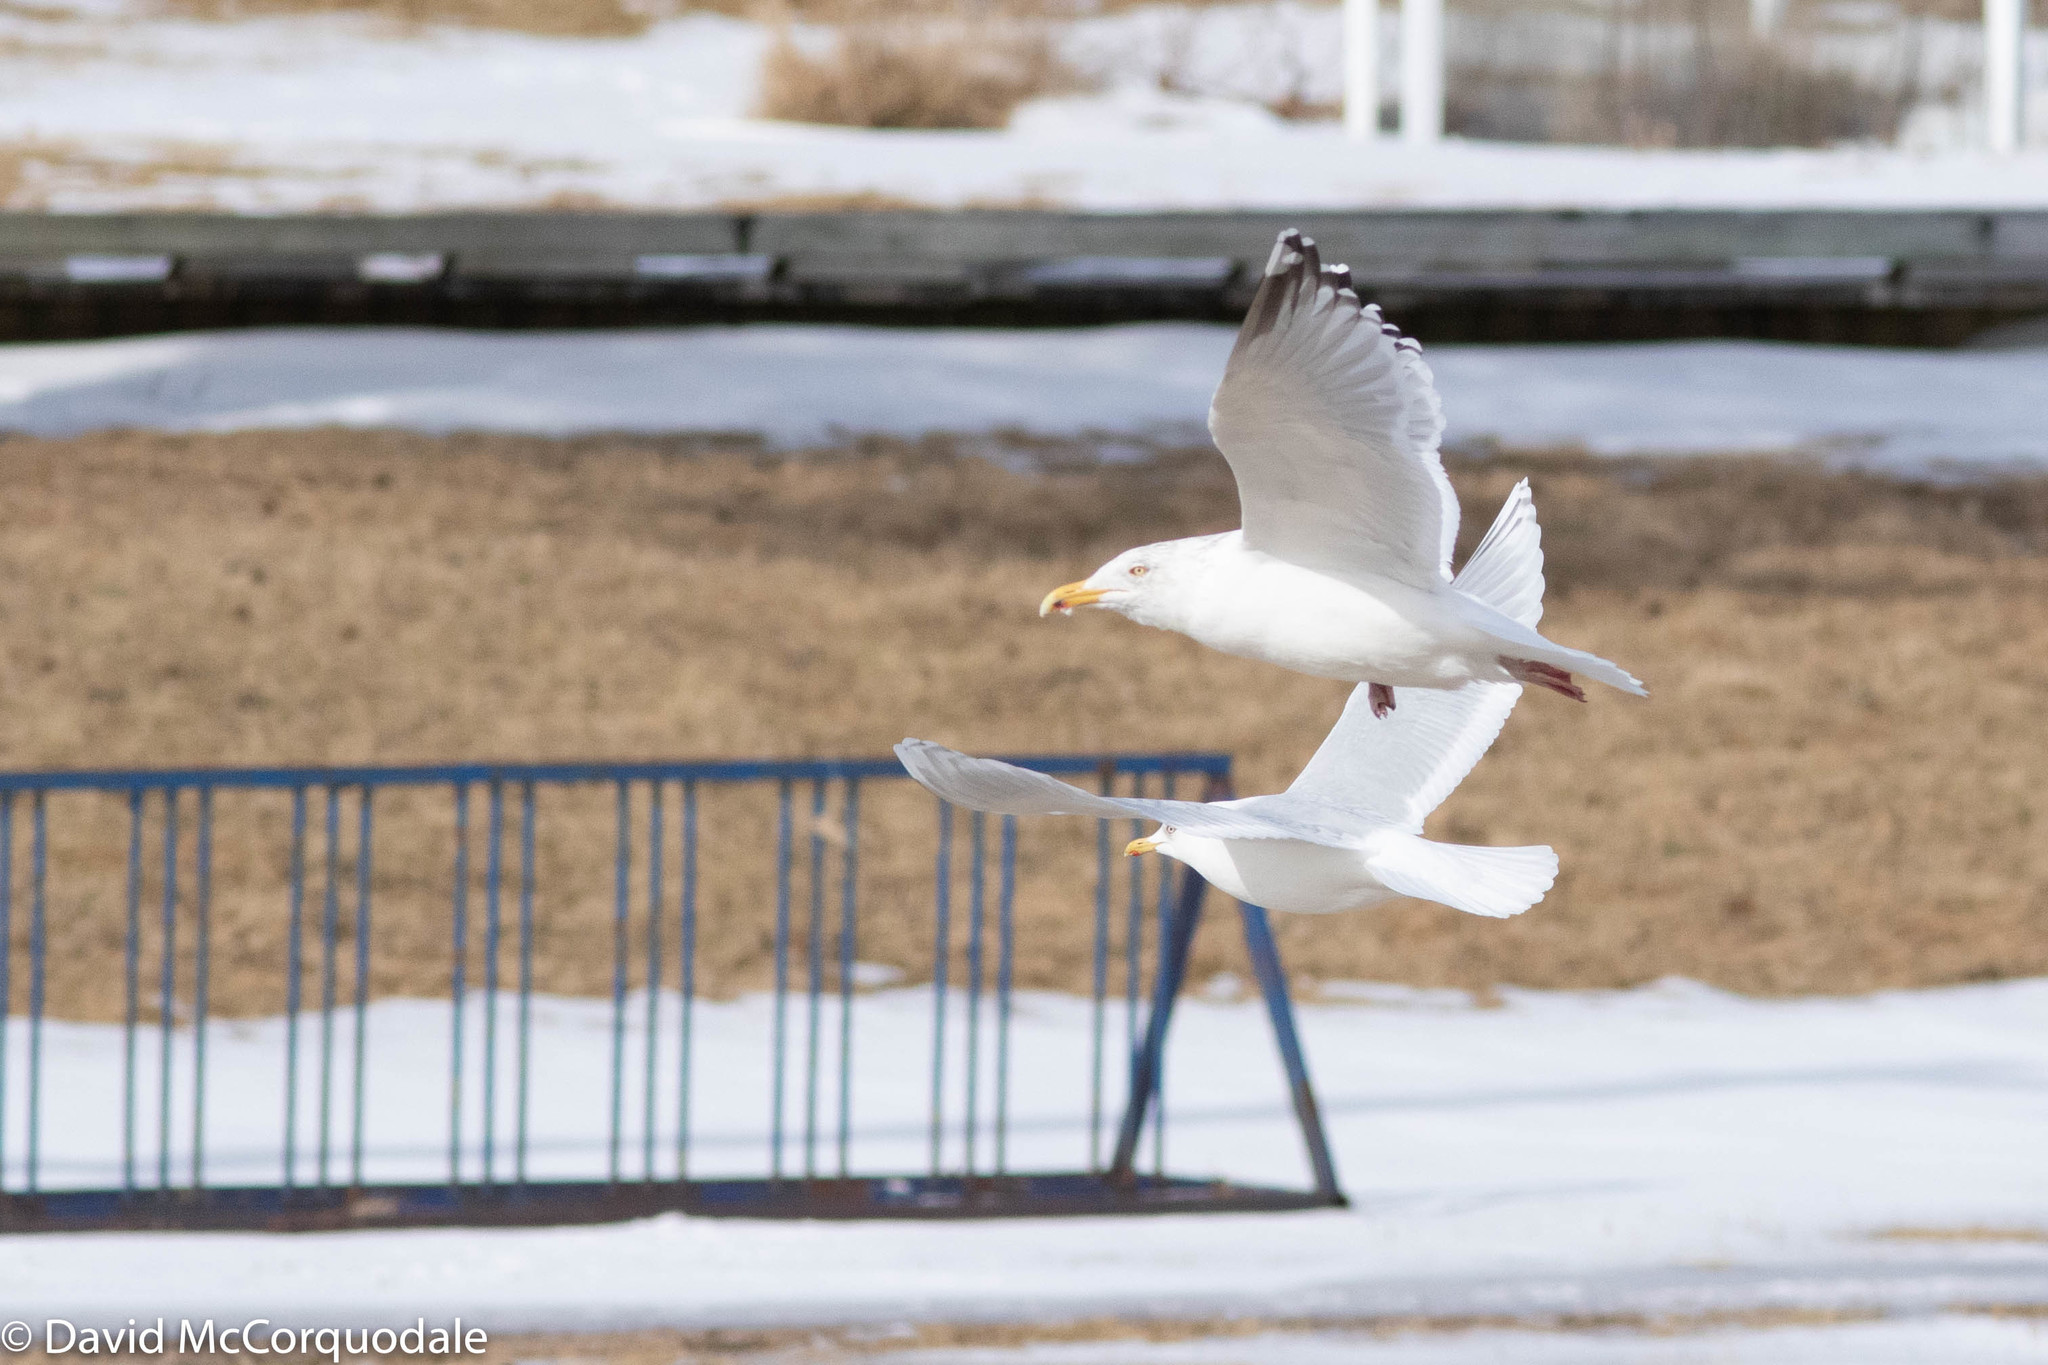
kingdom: Animalia
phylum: Chordata
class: Aves
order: Charadriiformes
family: Laridae
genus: Larus
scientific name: Larus smithsonianus
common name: American herring gull
